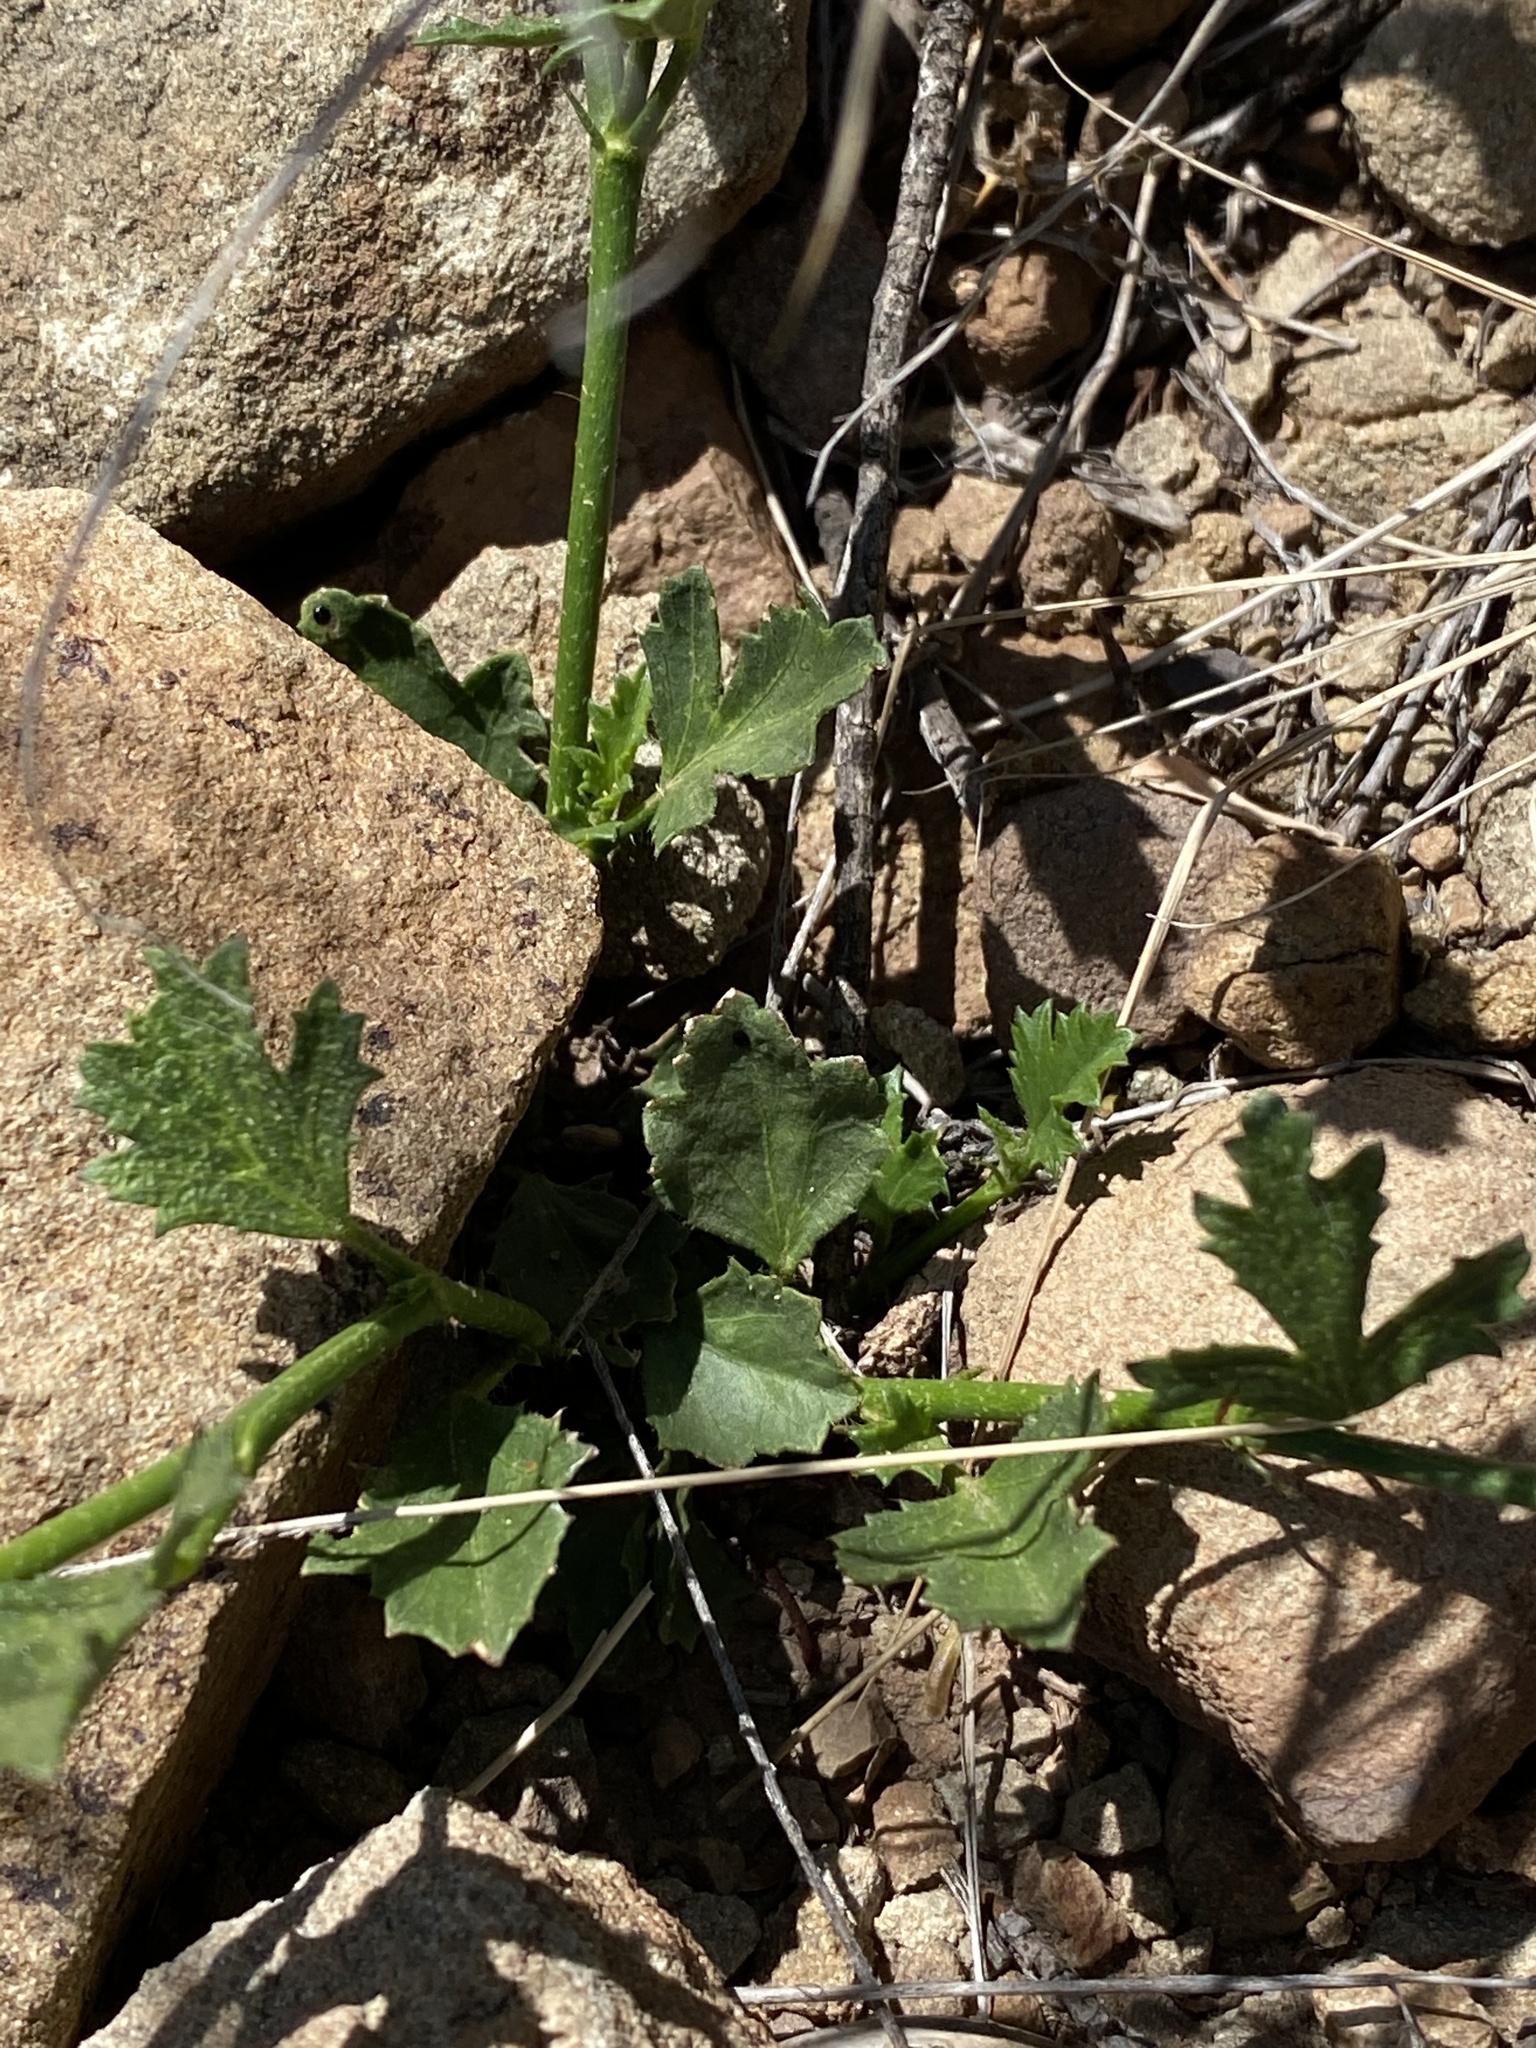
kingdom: Plantae
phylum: Tracheophyta
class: Magnoliopsida
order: Malvales
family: Malvaceae
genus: Hibiscus
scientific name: Hibiscus pusillus
